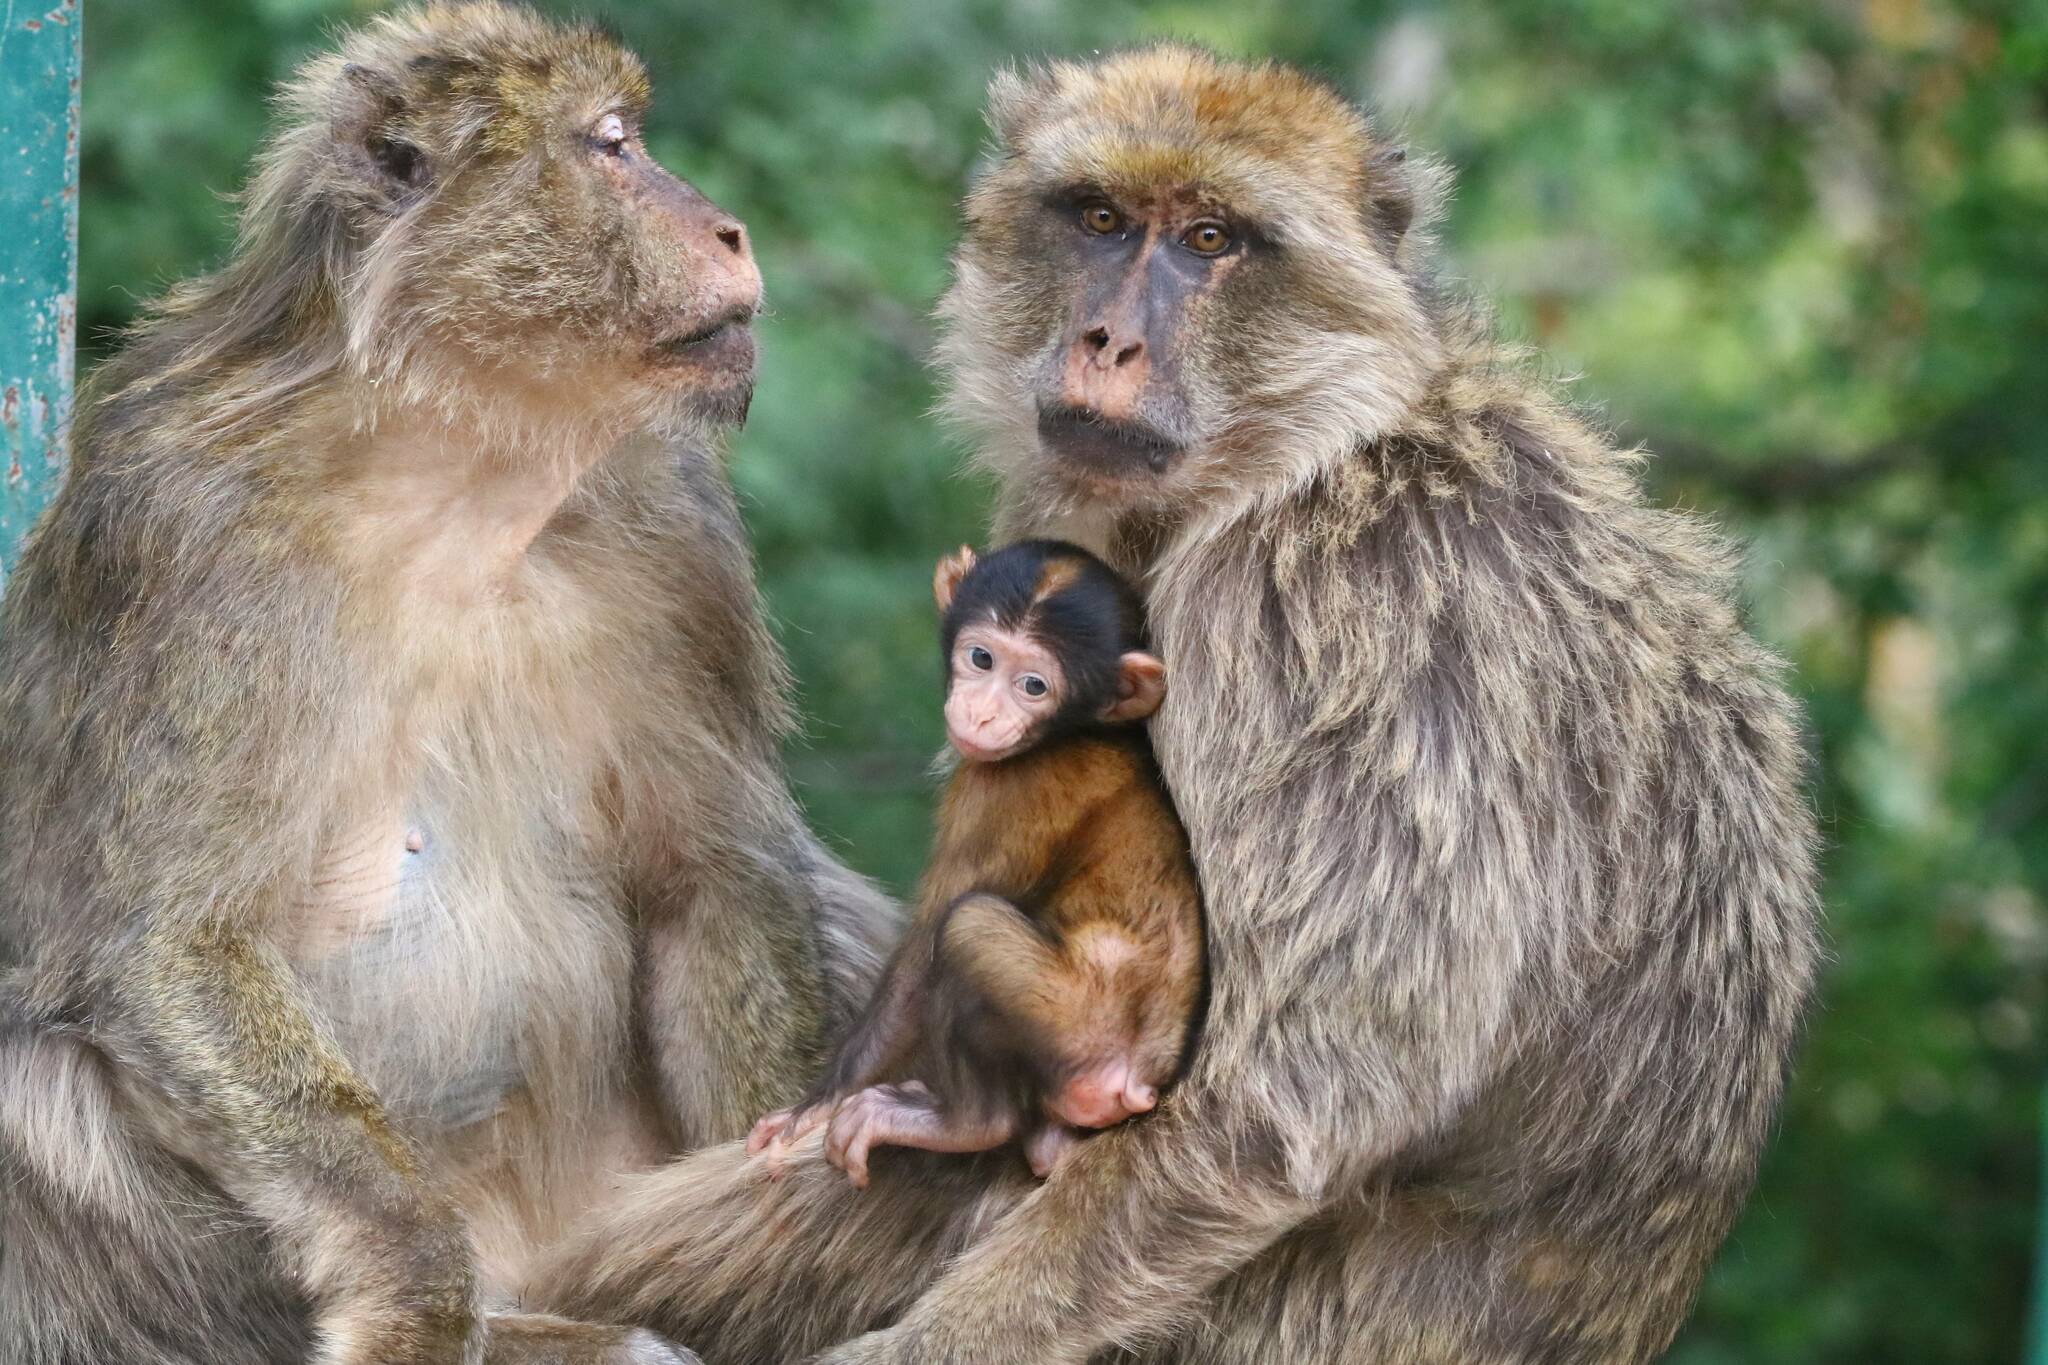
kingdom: Animalia
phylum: Chordata
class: Mammalia
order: Primates
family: Cercopithecidae
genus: Macaca
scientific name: Macaca sylvanus
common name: Barbary macaque
